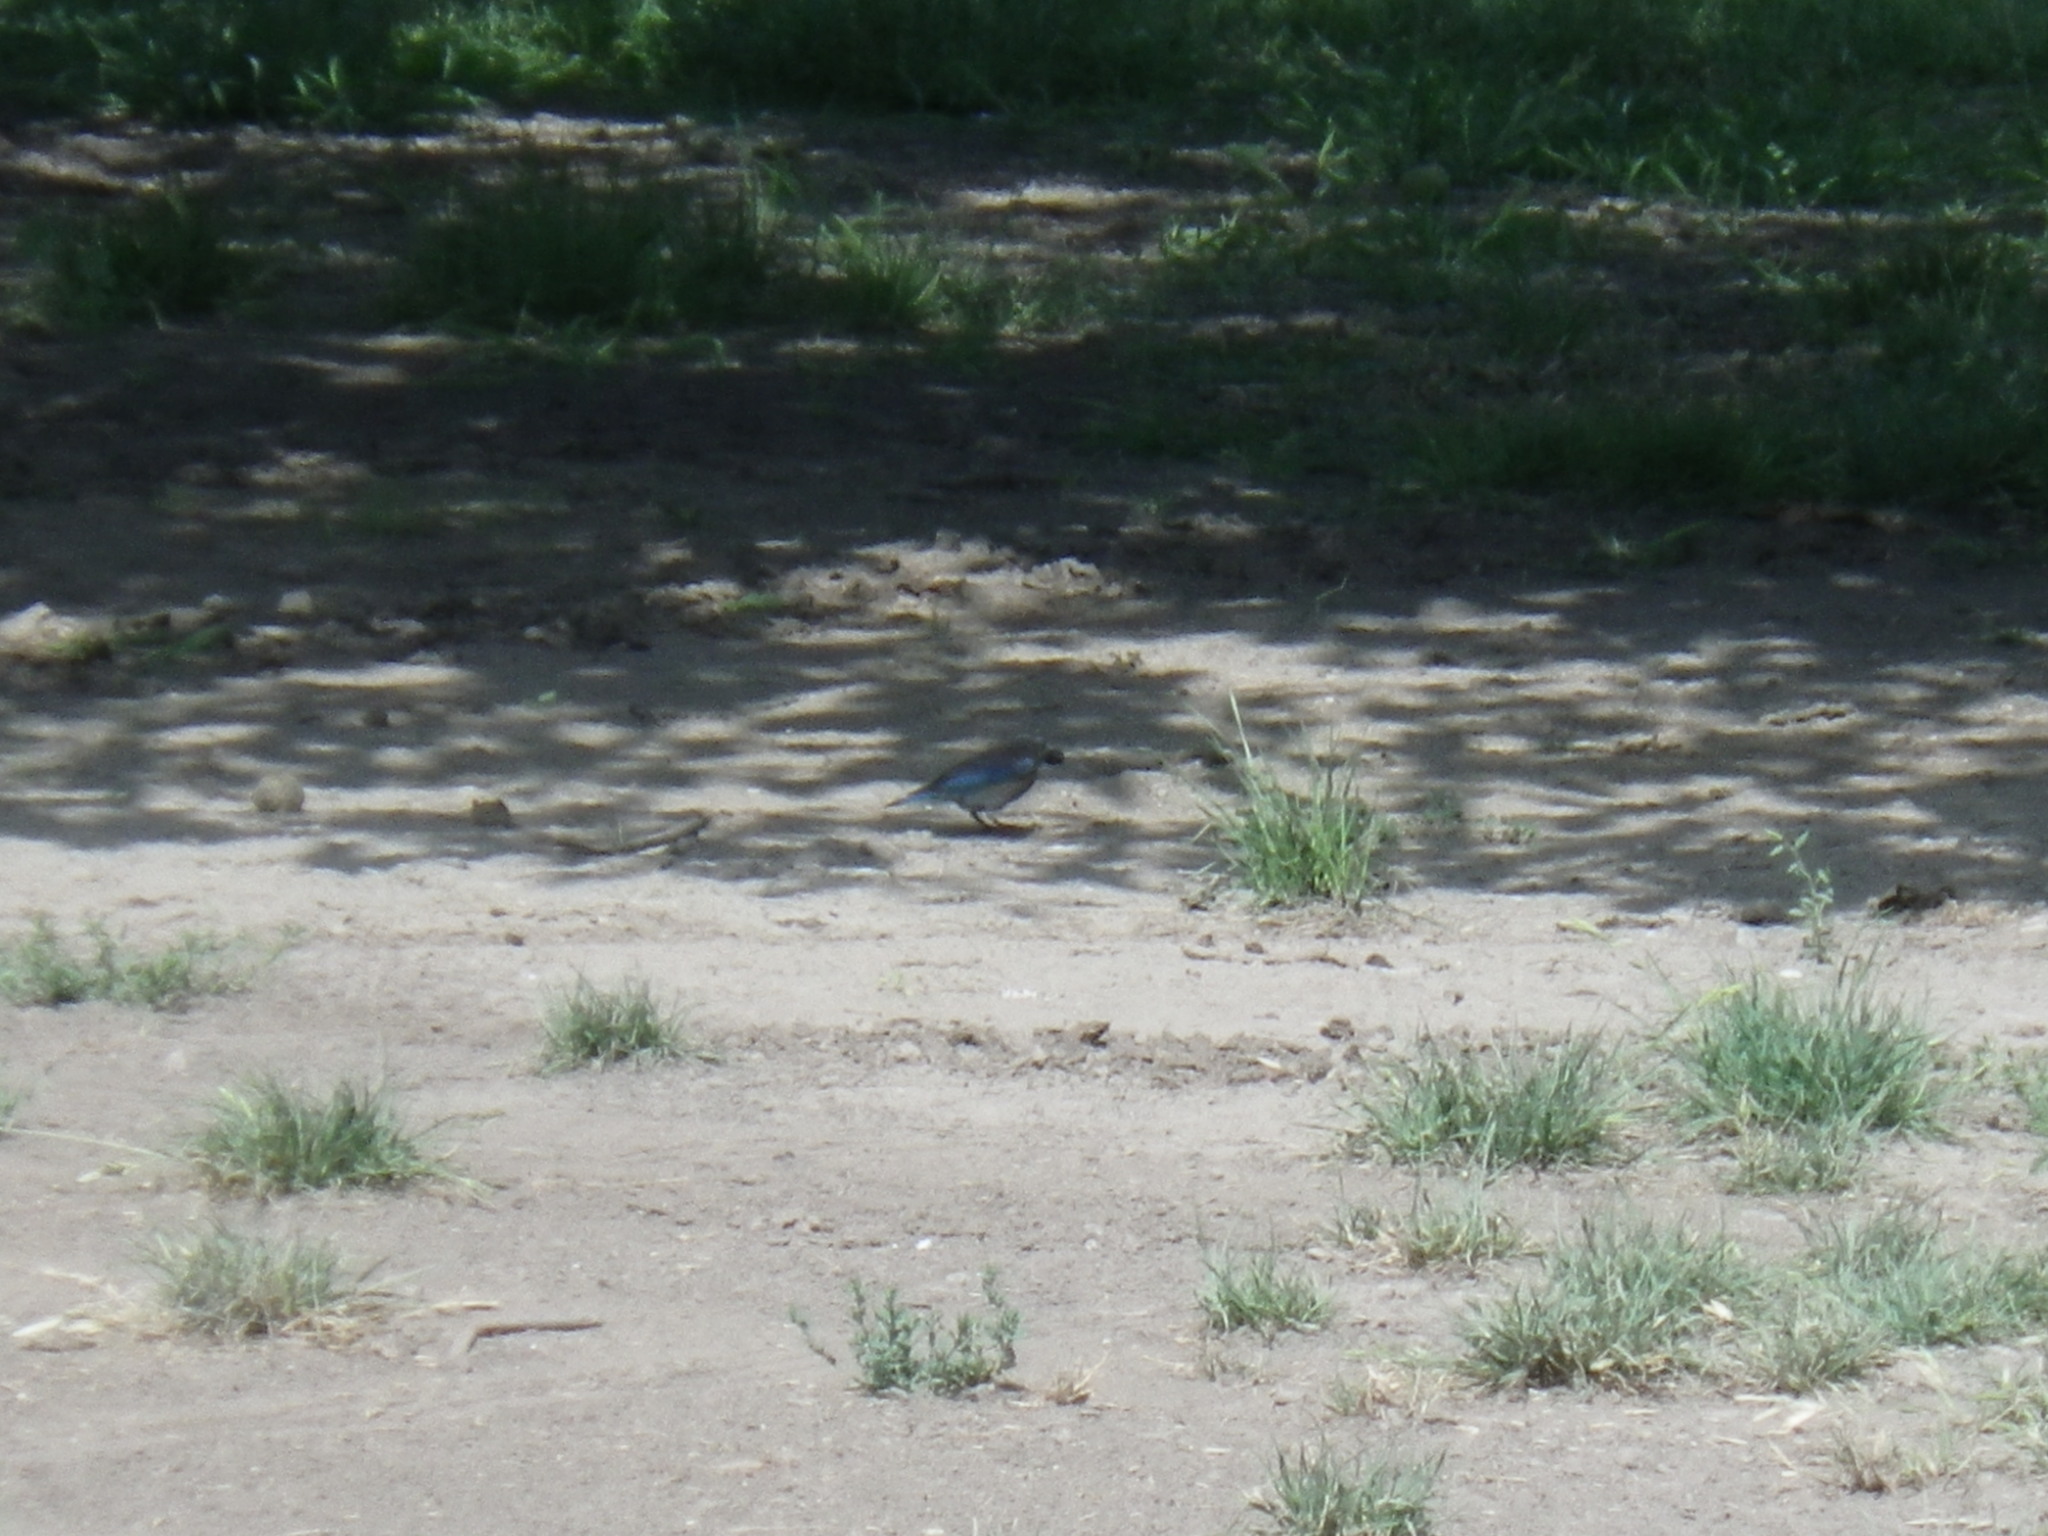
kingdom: Animalia
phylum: Chordata
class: Aves
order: Passeriformes
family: Turdidae
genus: Sialia
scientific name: Sialia mexicana
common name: Western bluebird
